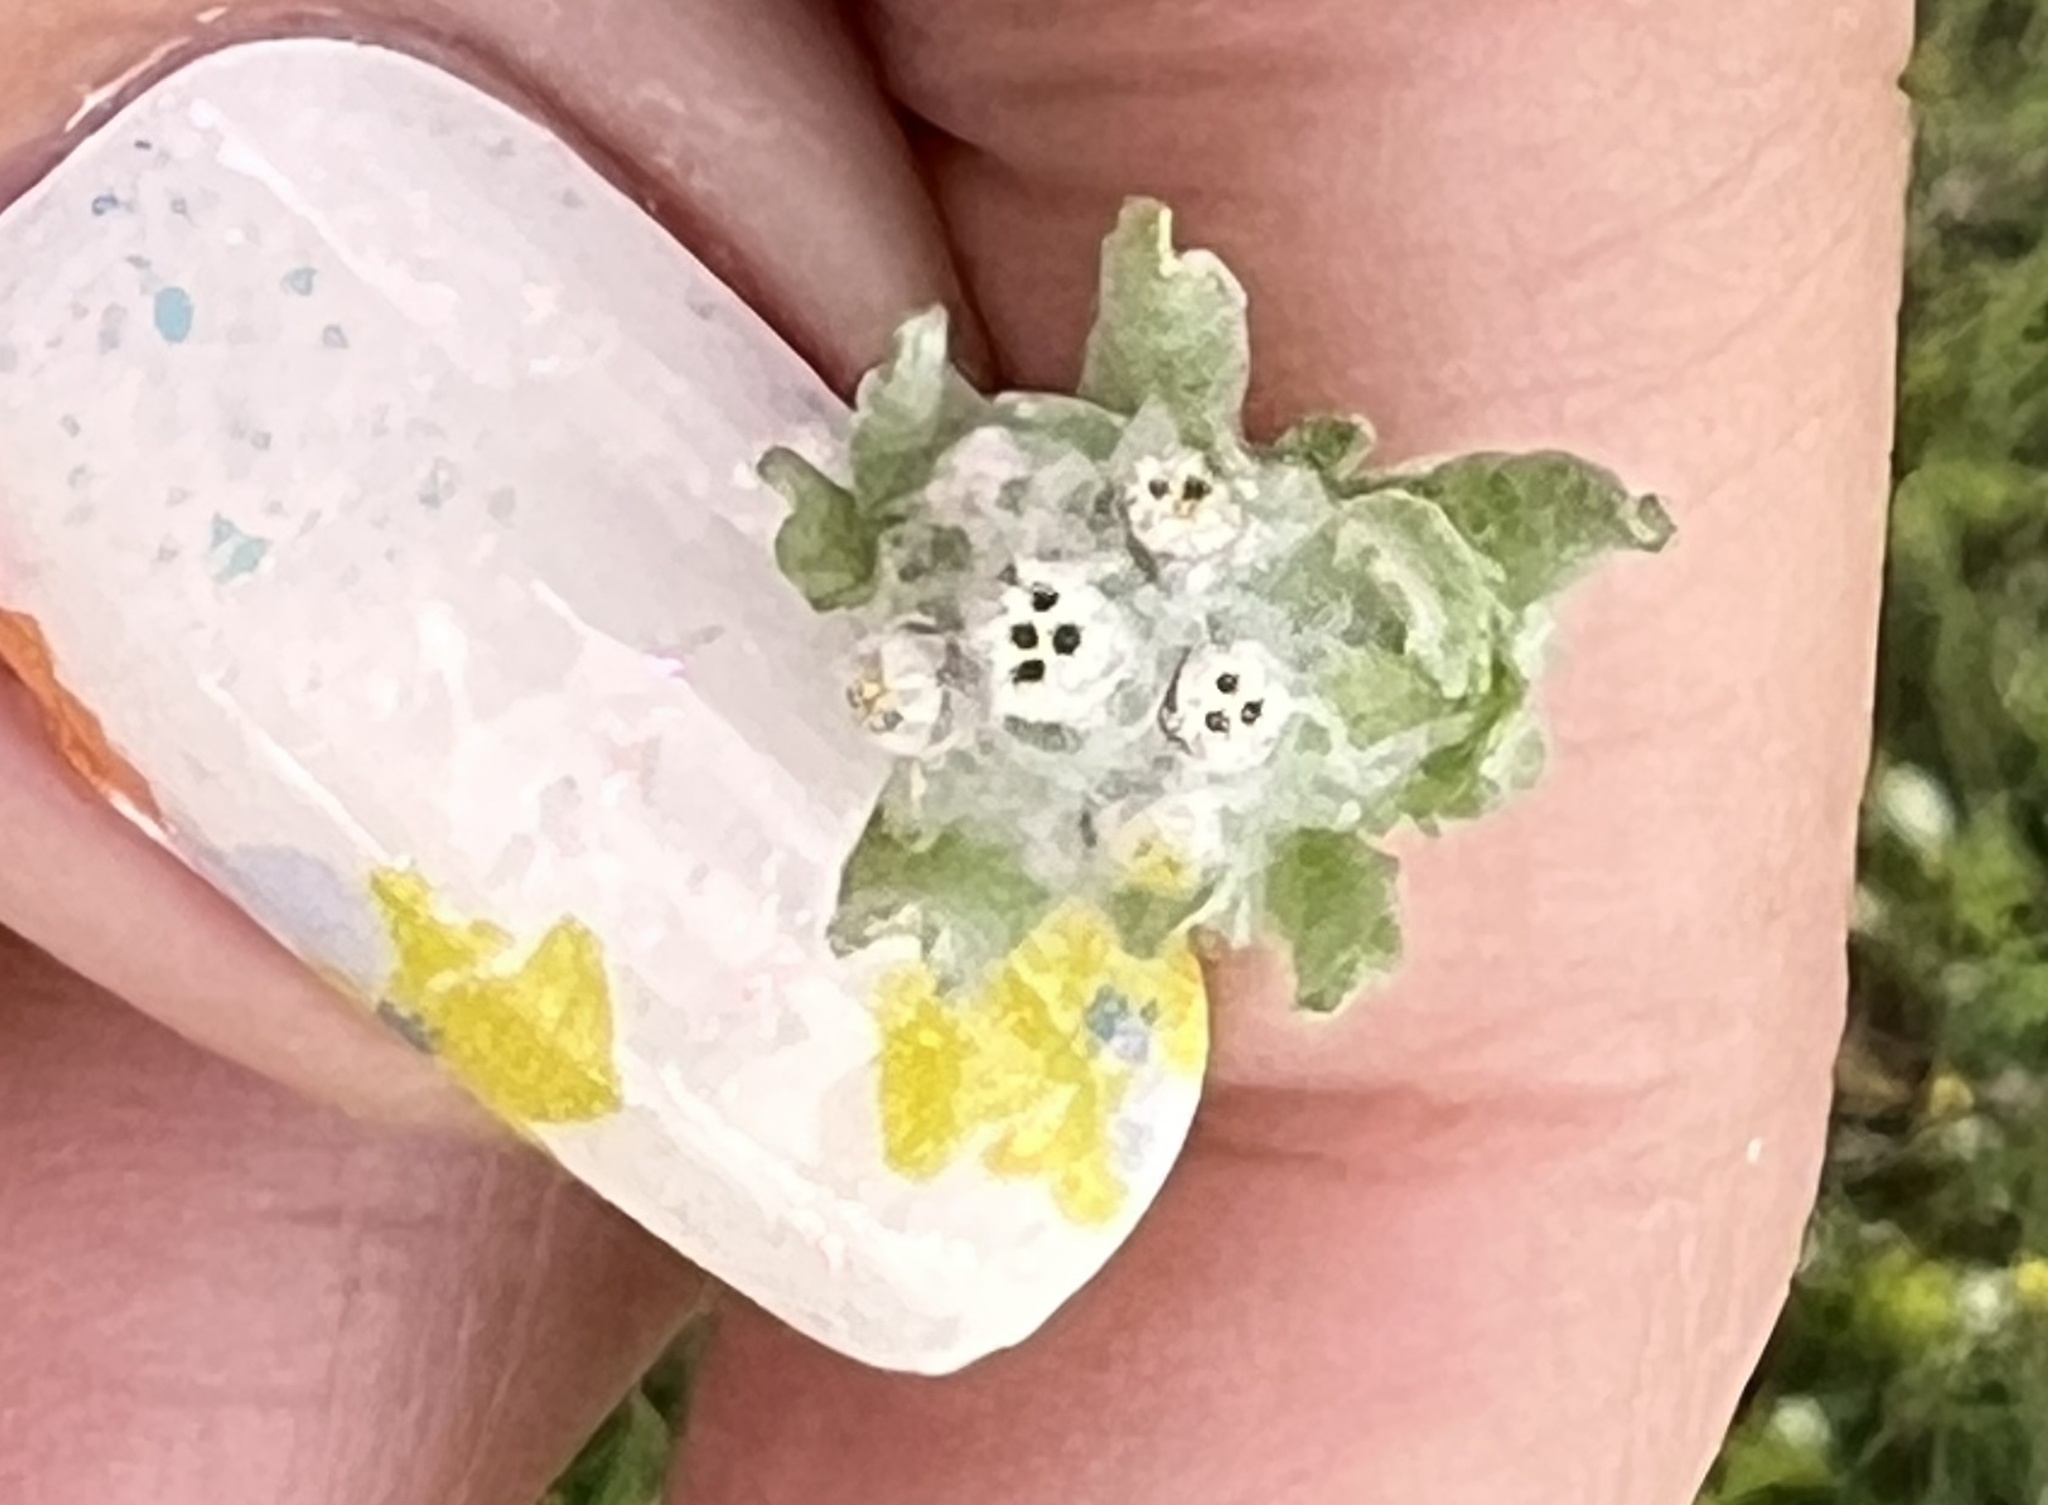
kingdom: Plantae
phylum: Tracheophyta
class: Magnoliopsida
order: Asterales
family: Asteraceae
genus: Diaperia
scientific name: Diaperia verna
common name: Many-stem rabbit-tobacco
